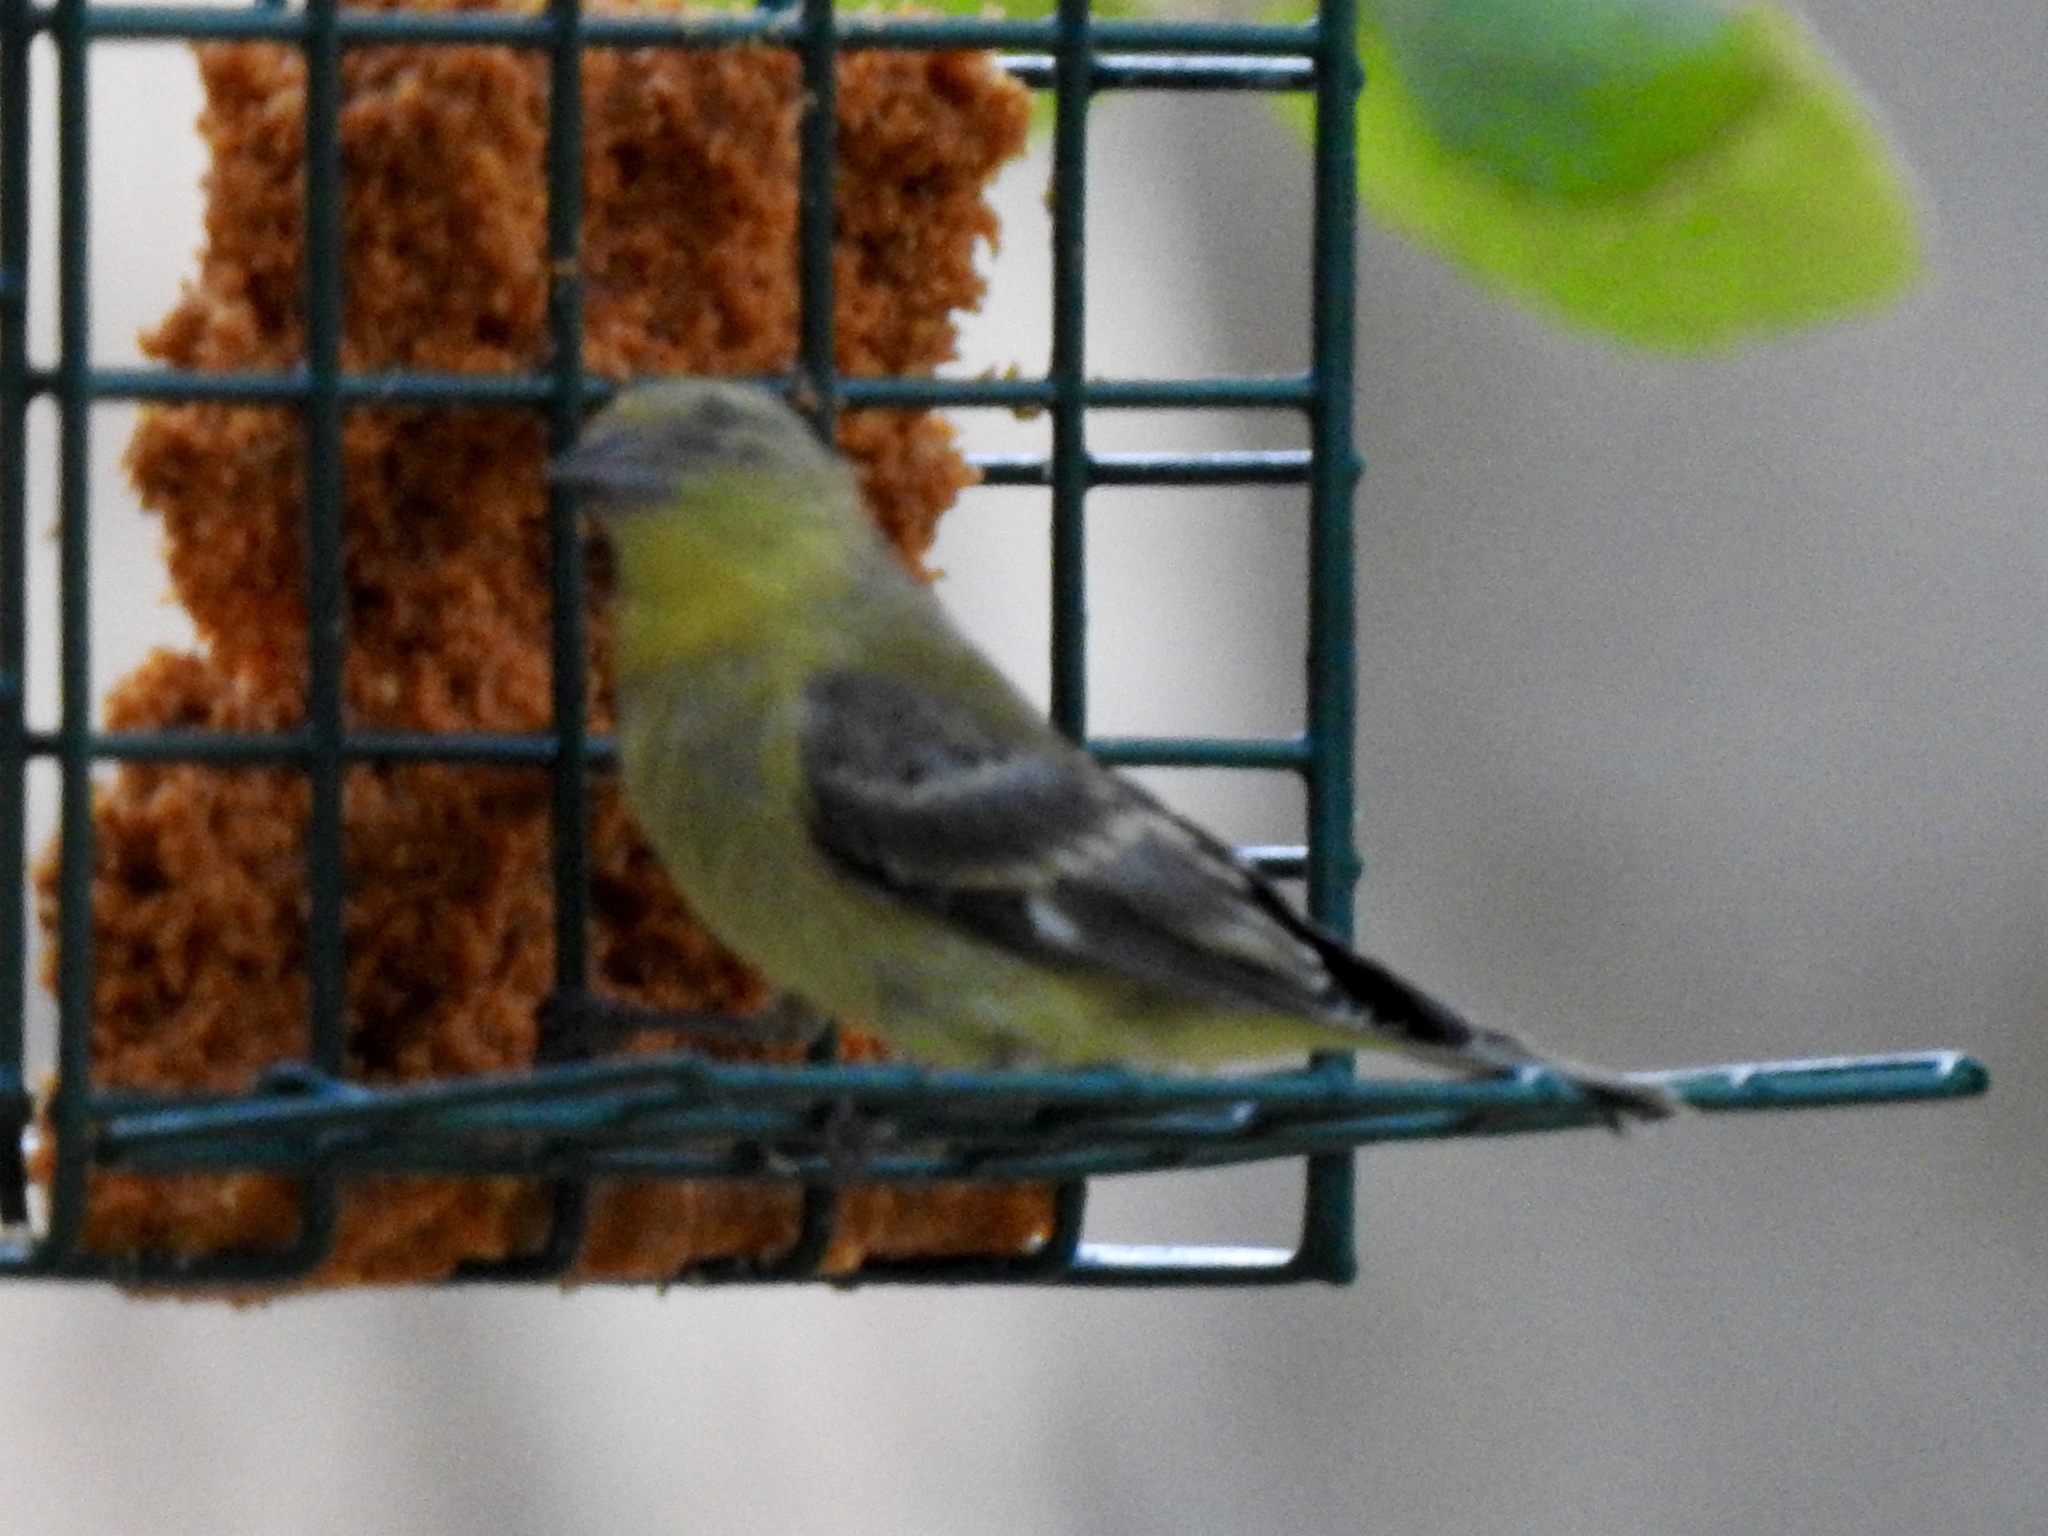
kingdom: Animalia
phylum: Chordata
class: Aves
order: Passeriformes
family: Fringillidae
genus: Spinus
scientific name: Spinus psaltria
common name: Lesser goldfinch
